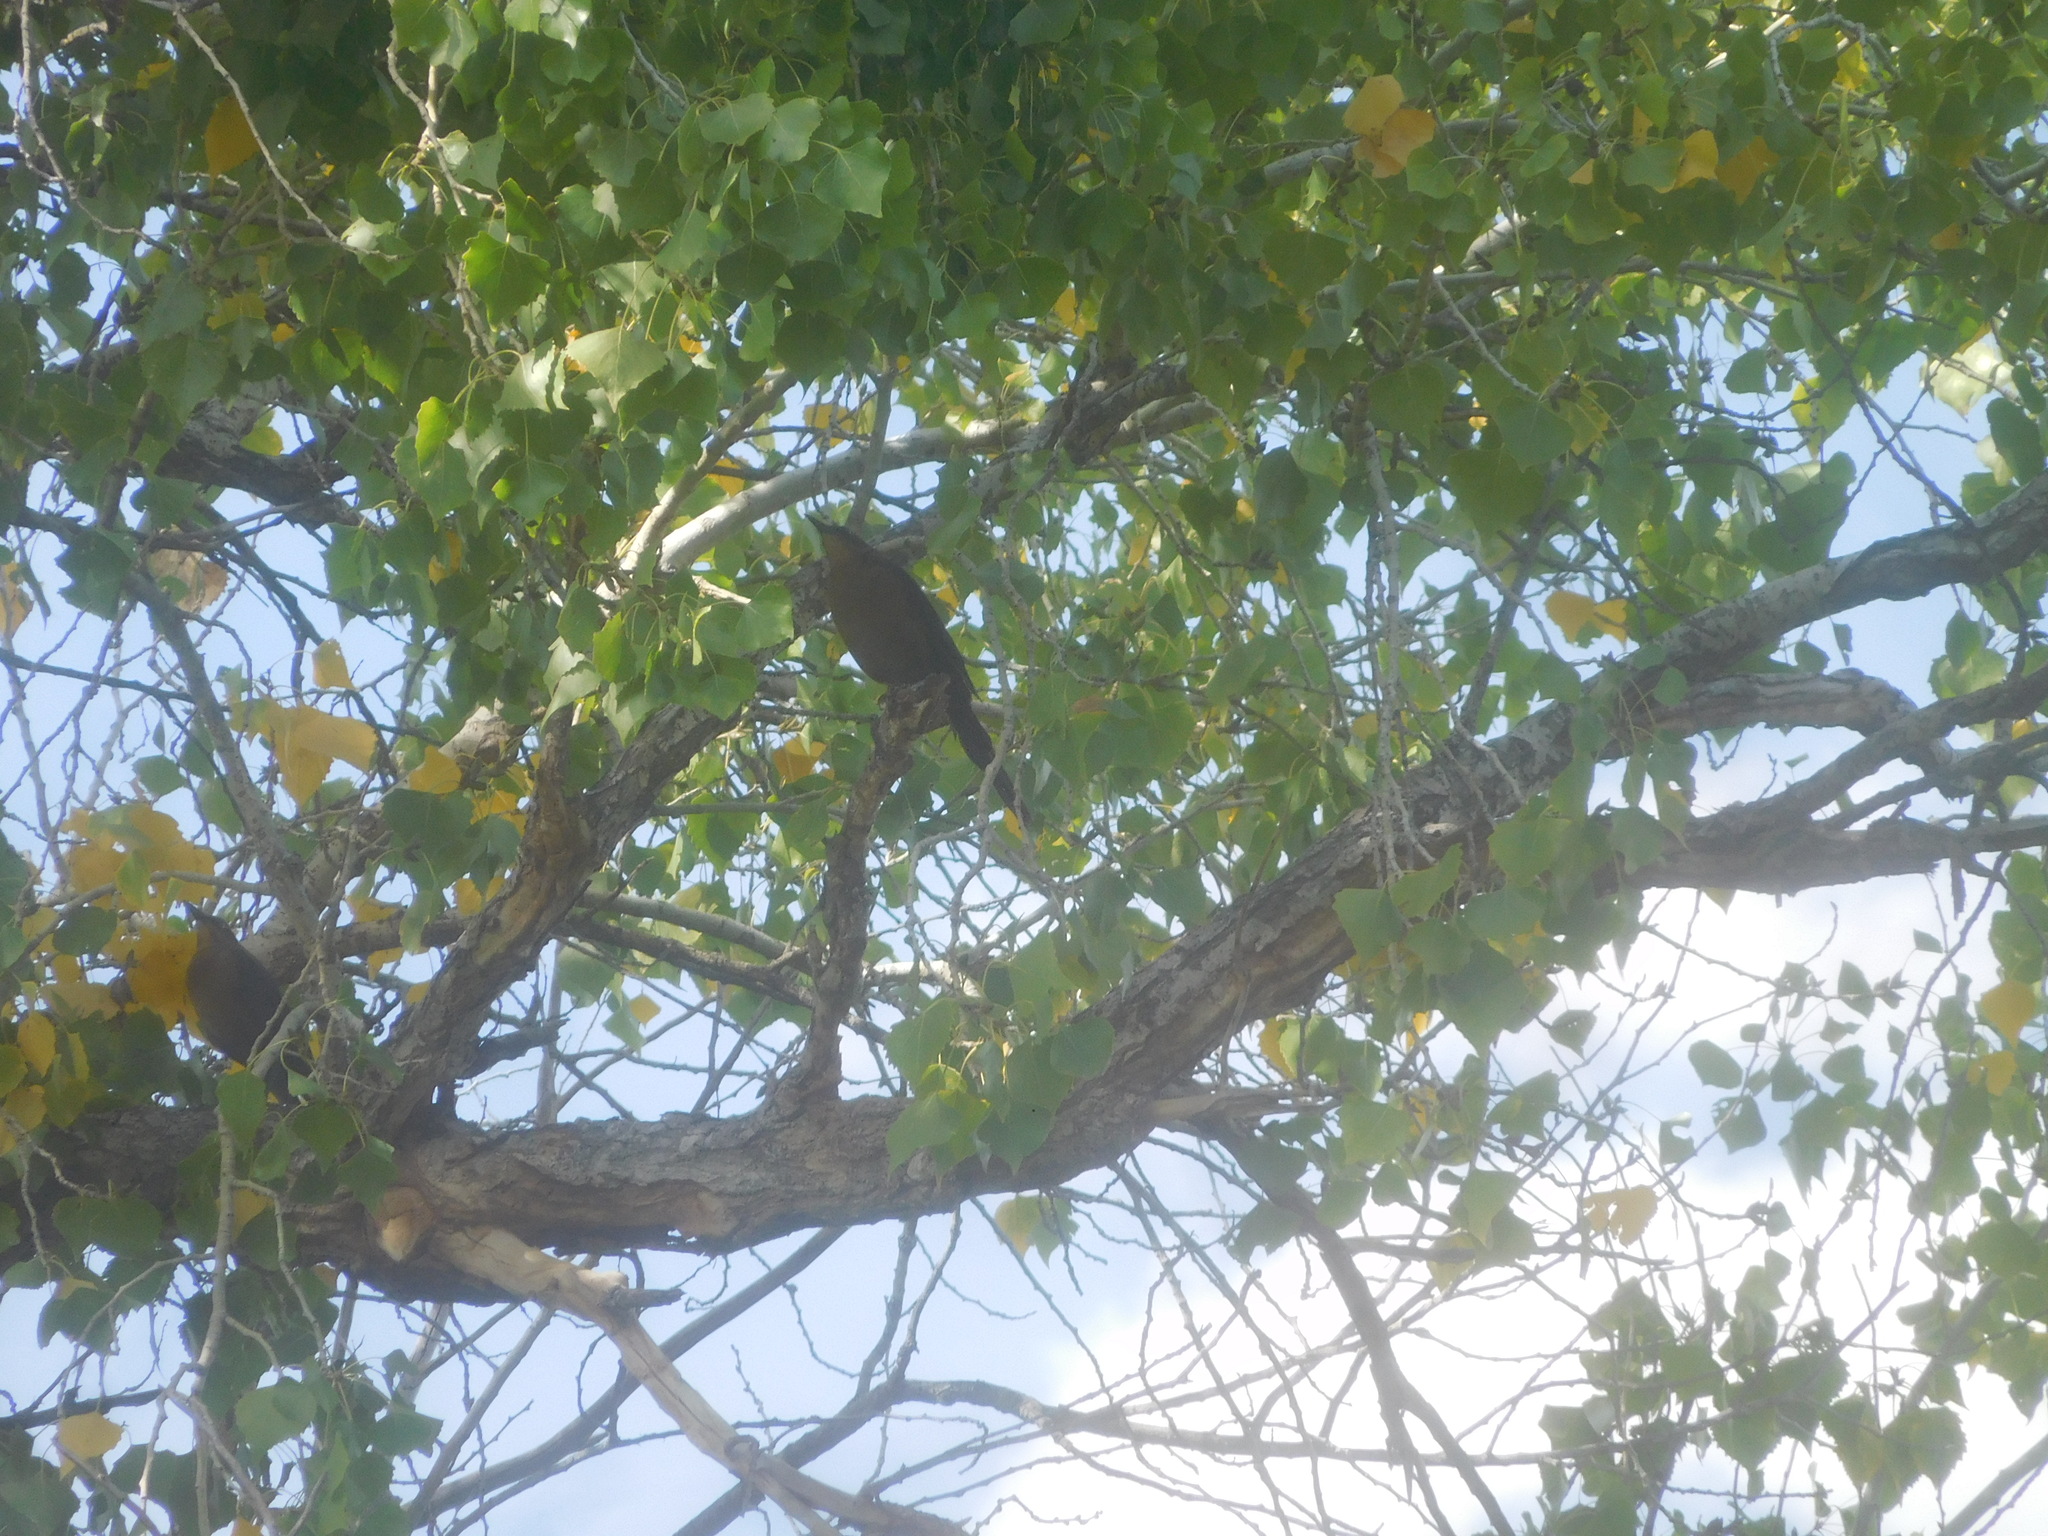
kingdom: Animalia
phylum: Chordata
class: Aves
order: Passeriformes
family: Icteridae
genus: Quiscalus
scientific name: Quiscalus mexicanus
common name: Great-tailed grackle
